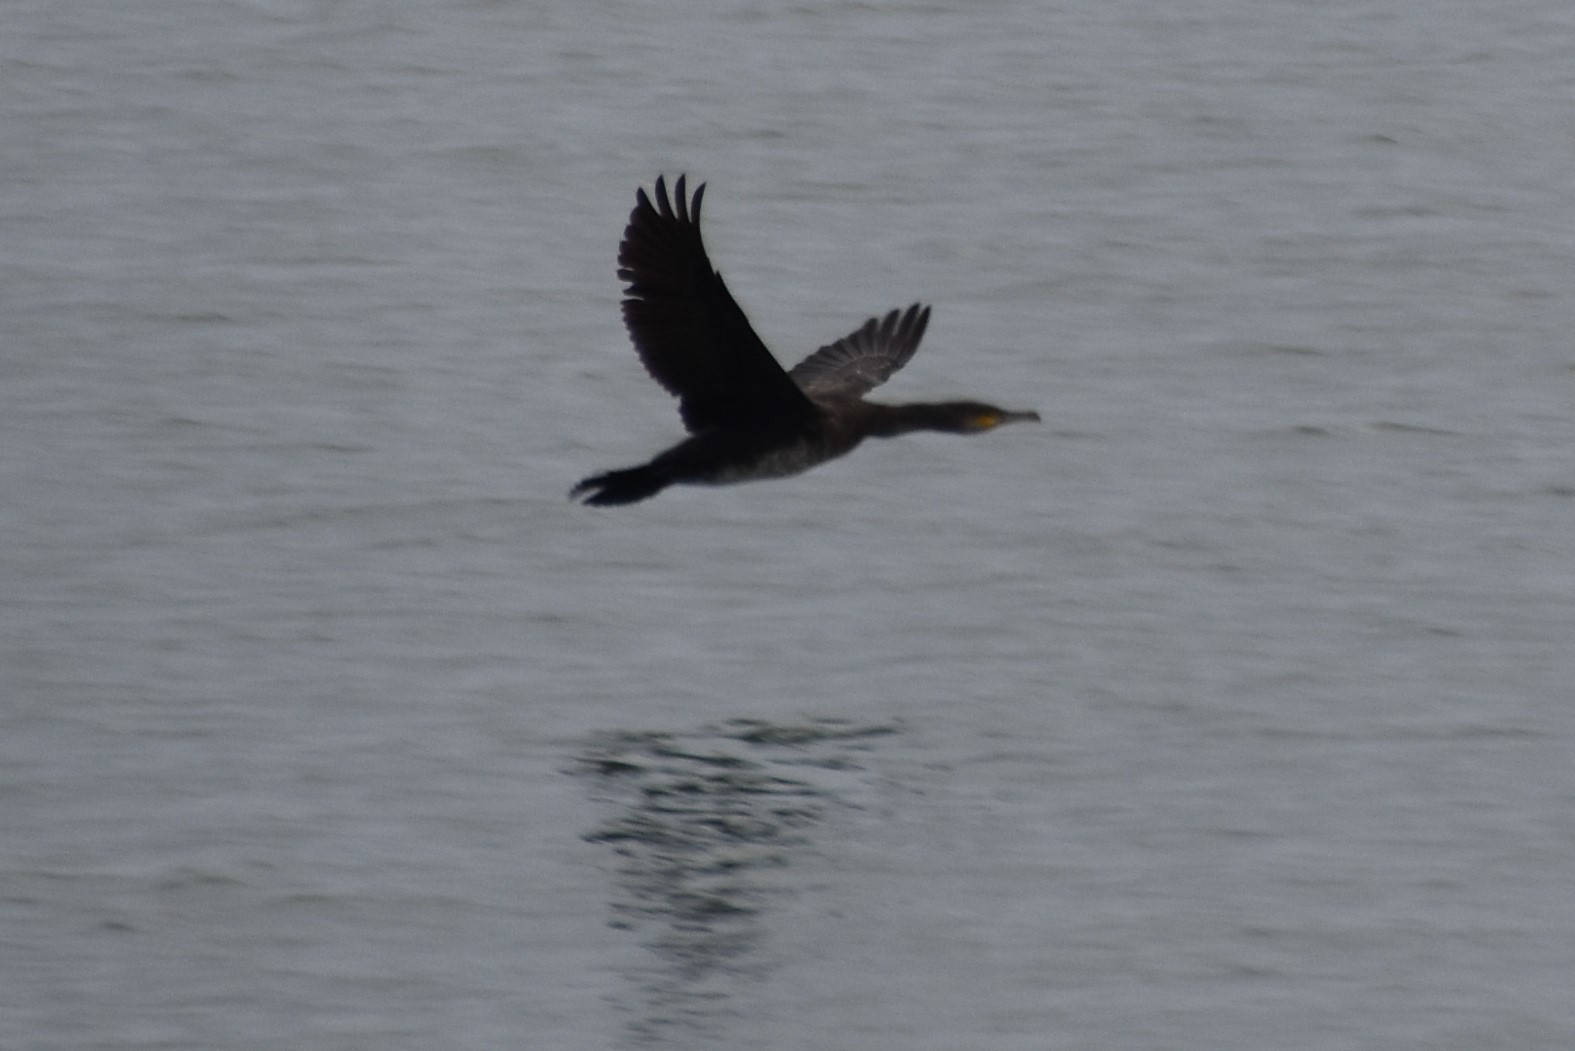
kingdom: Animalia
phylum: Chordata
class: Aves
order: Suliformes
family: Phalacrocoracidae
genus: Phalacrocorax
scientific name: Phalacrocorax carbo
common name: Great cormorant
